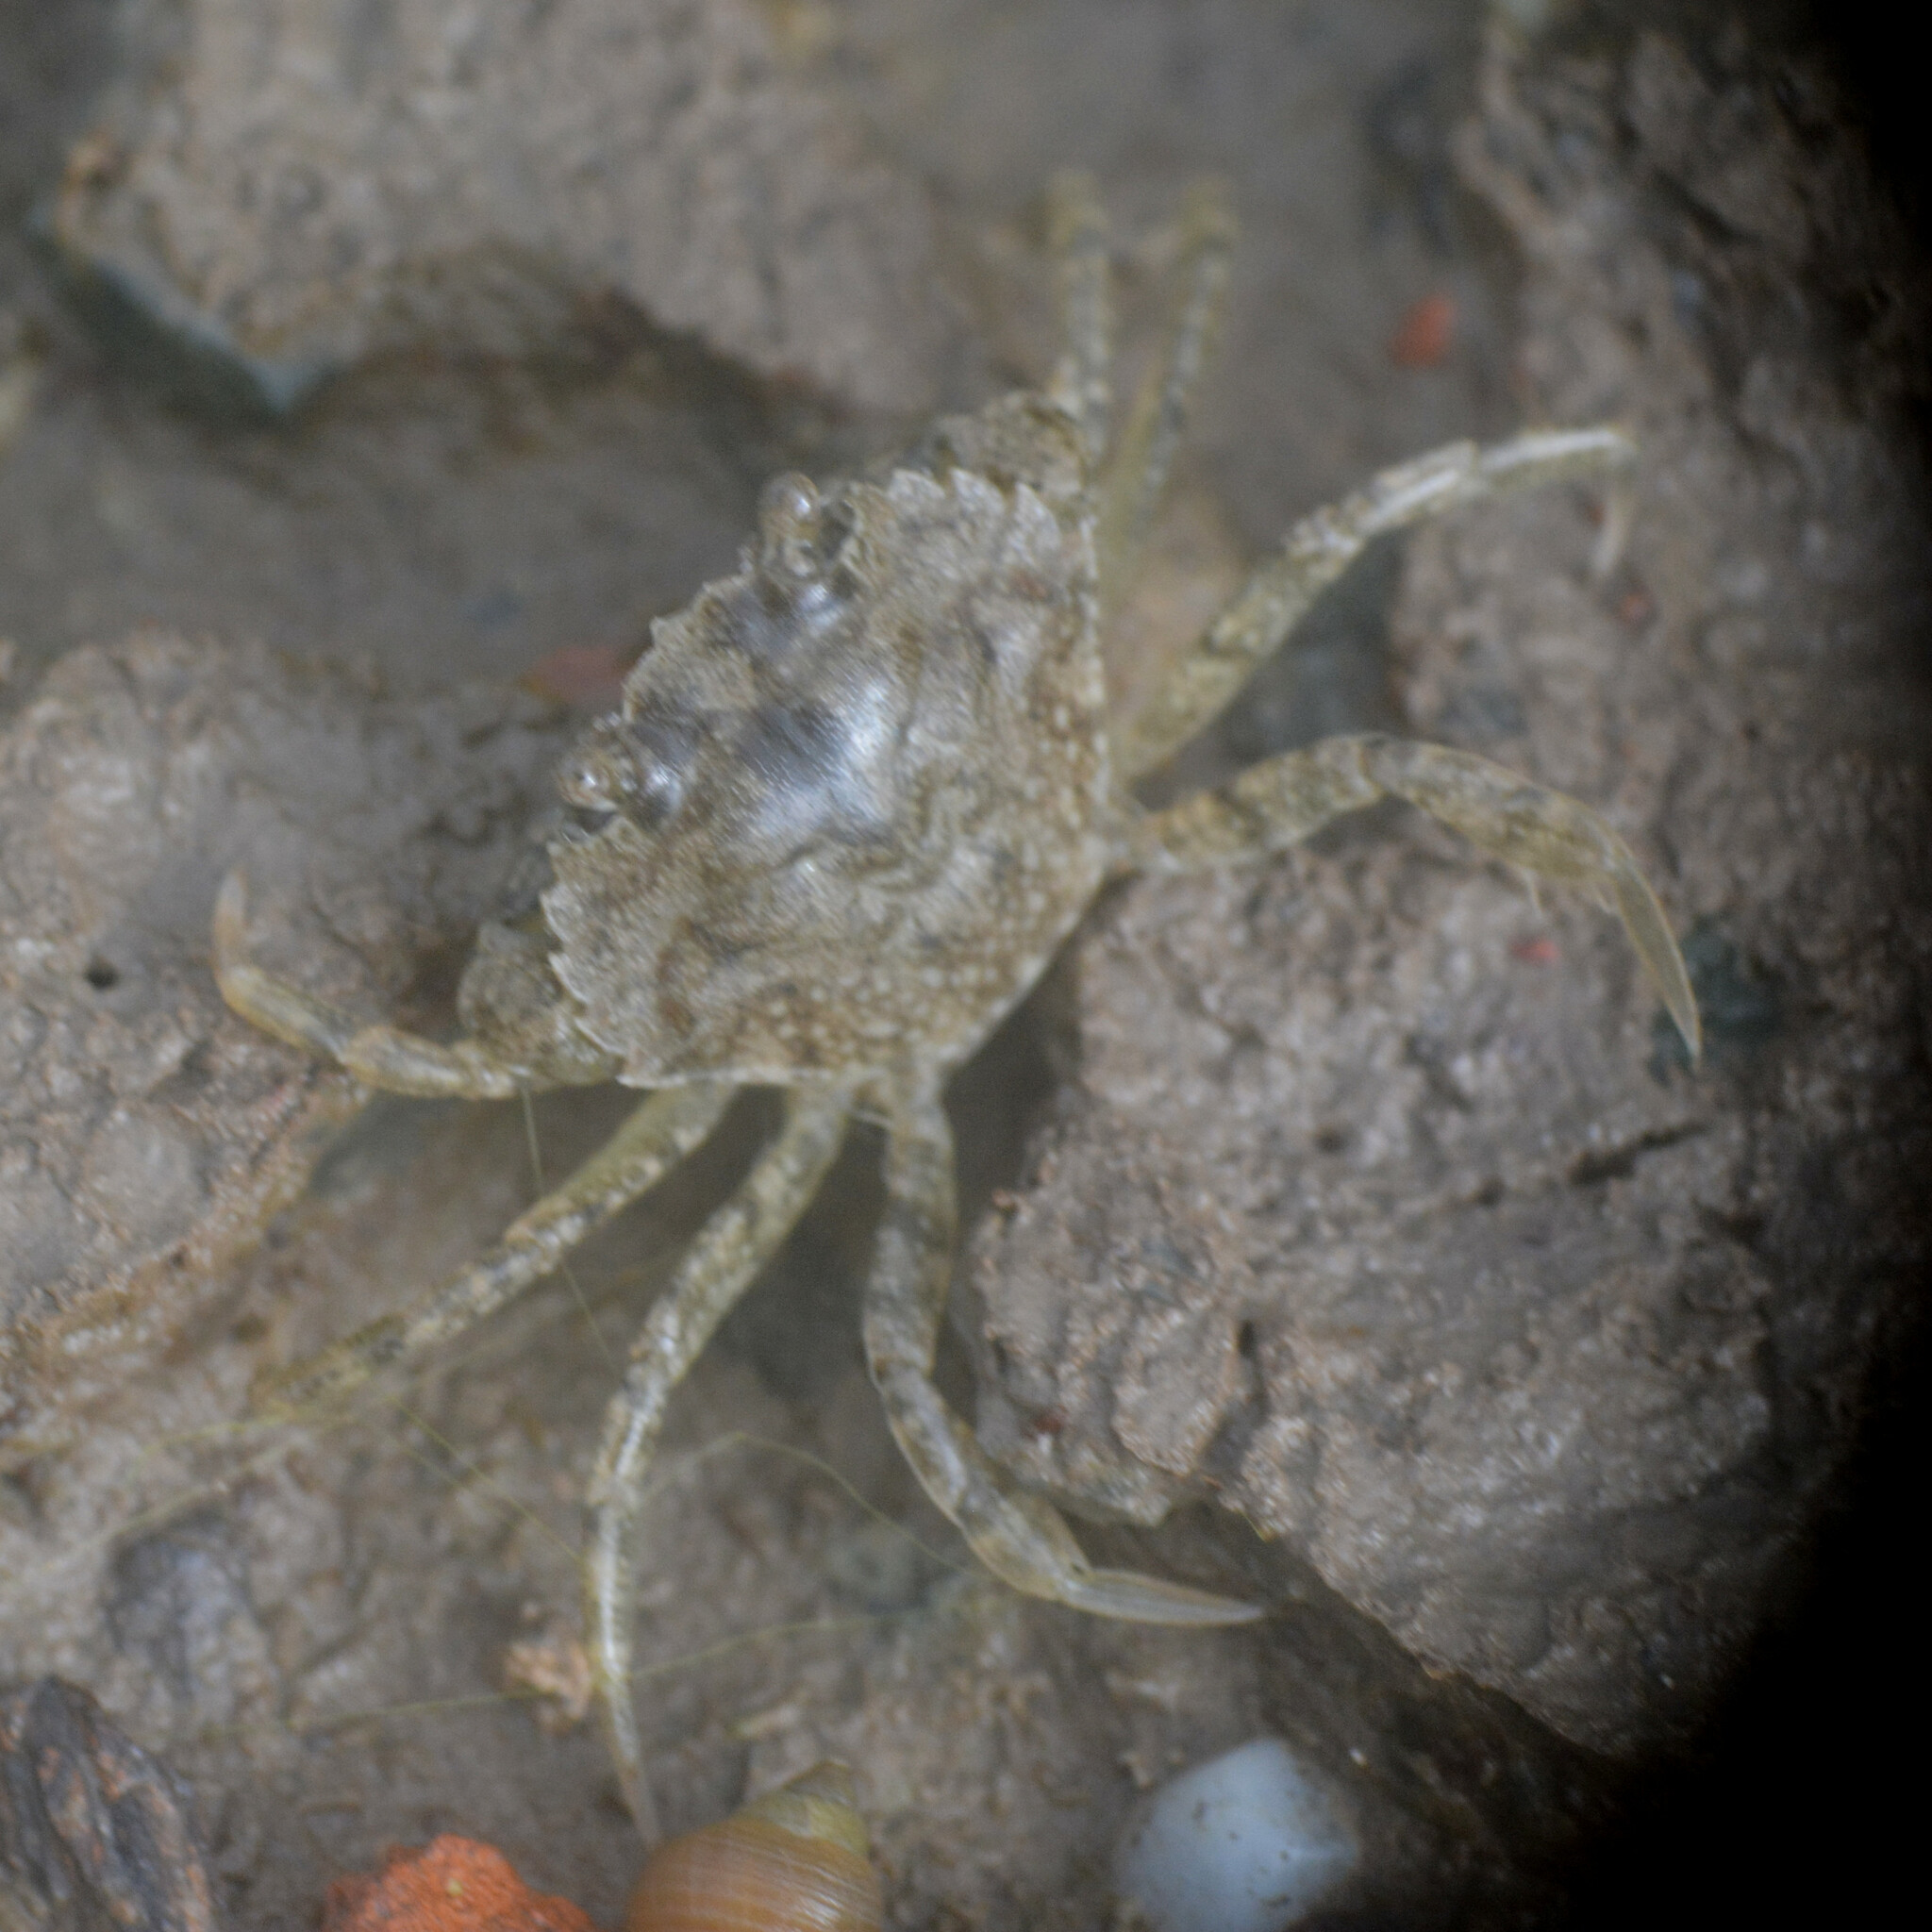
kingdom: Animalia
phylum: Arthropoda
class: Malacostraca
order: Decapoda
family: Carcinidae
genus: Carcinus
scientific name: Carcinus maenas
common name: European green crab
